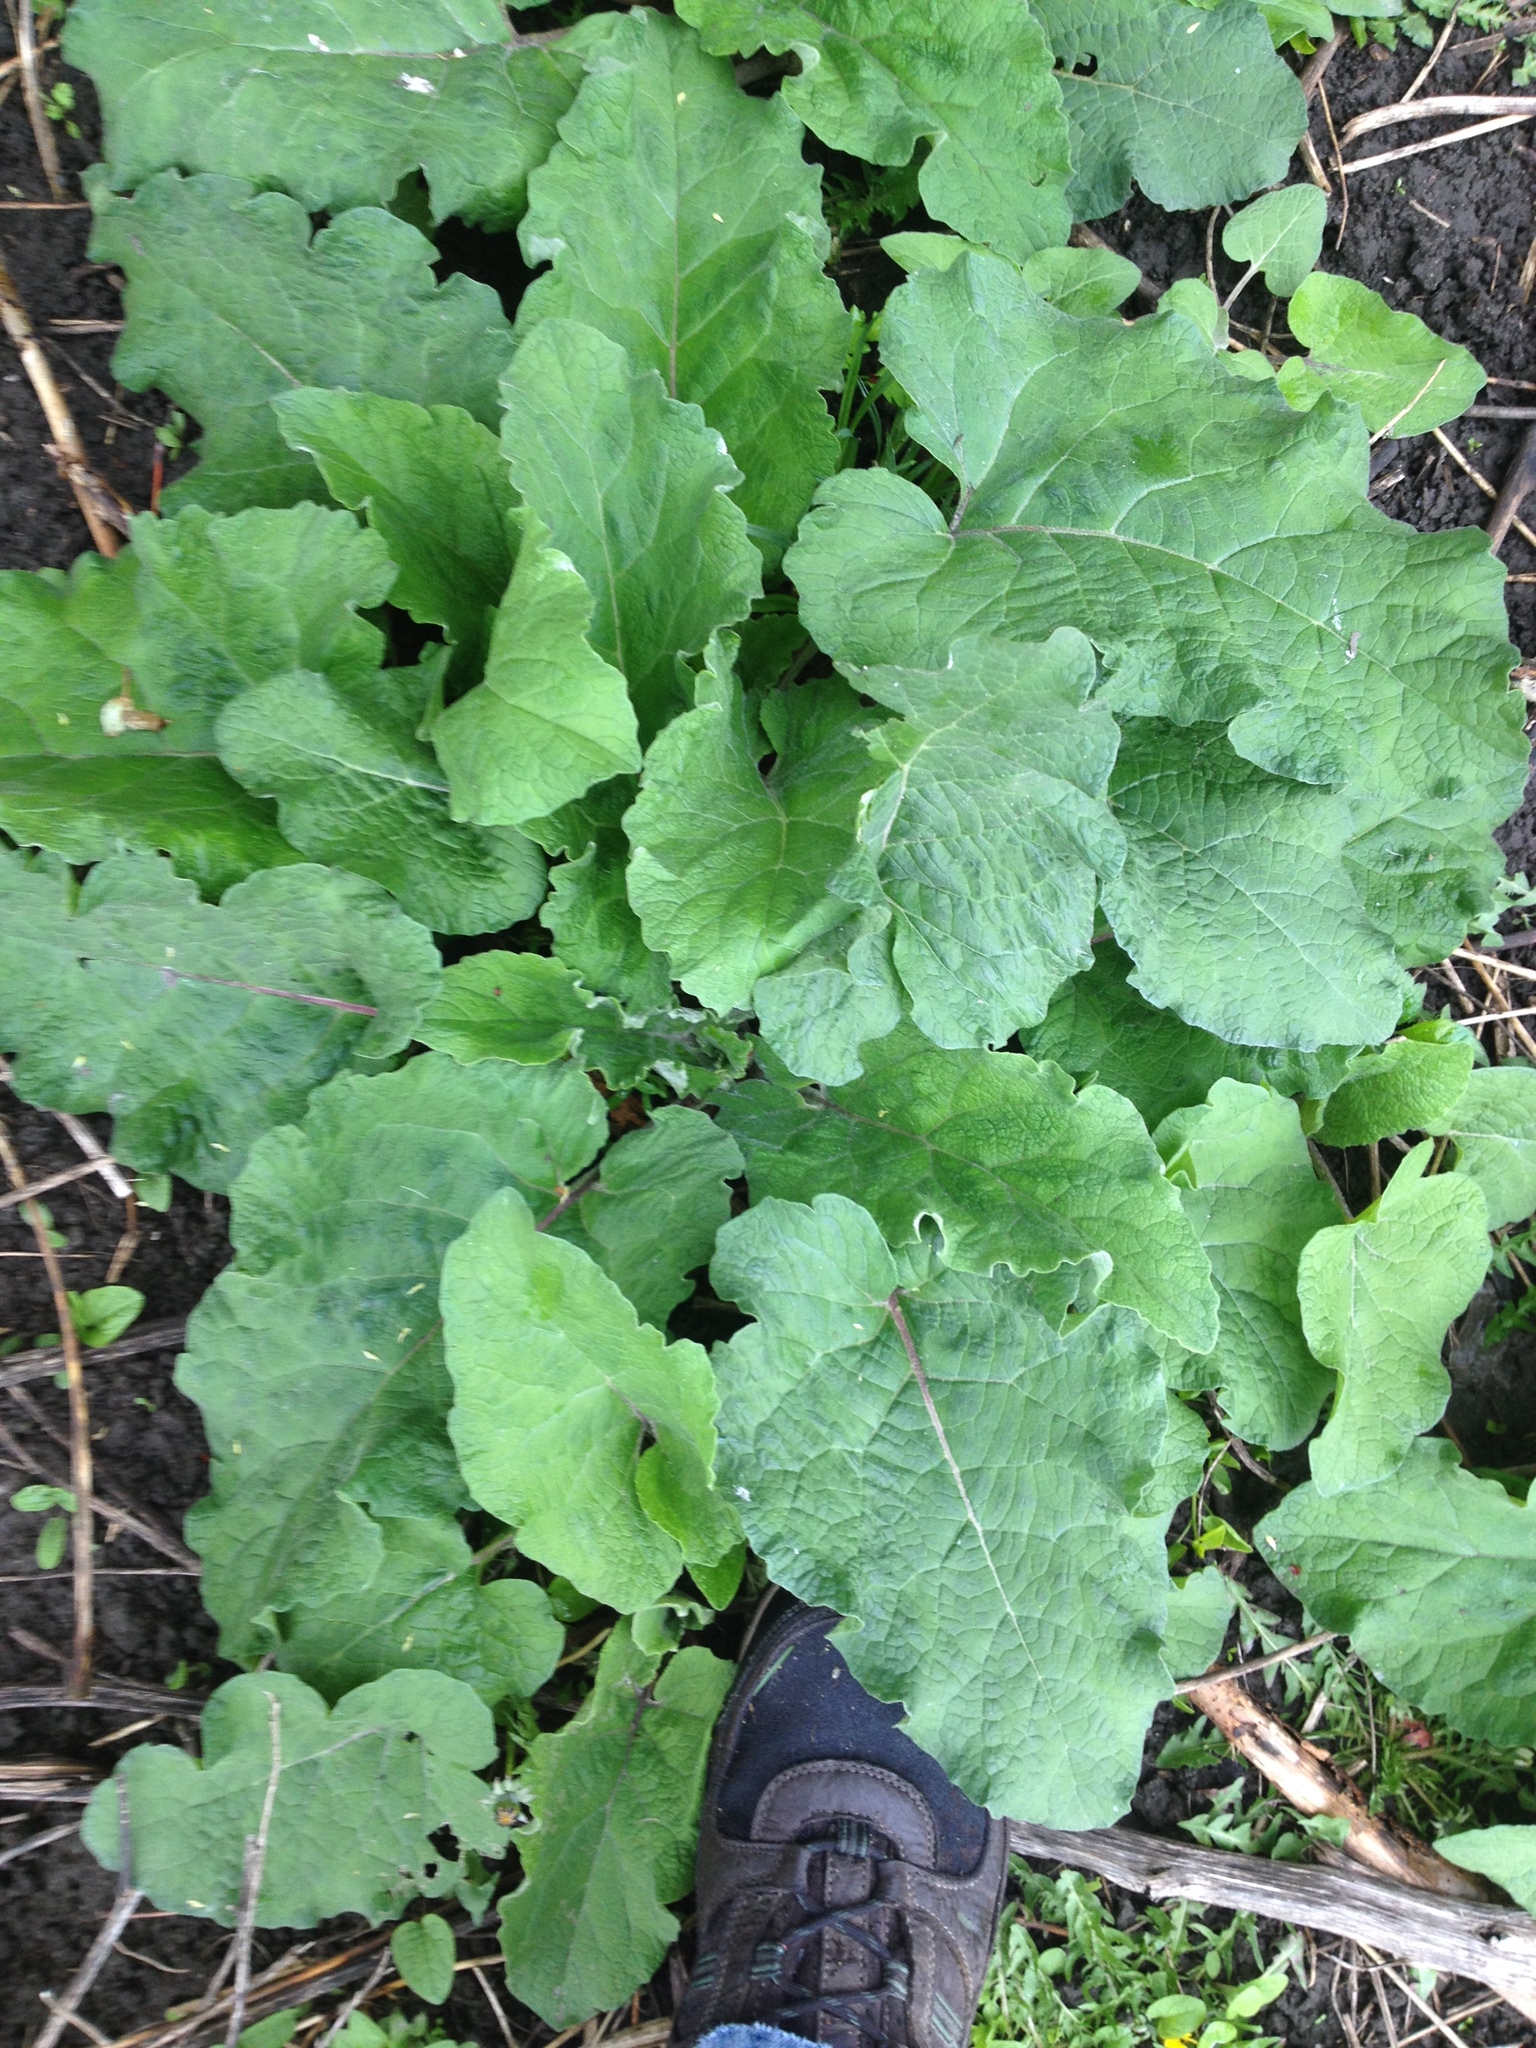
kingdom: Plantae
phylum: Tracheophyta
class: Magnoliopsida
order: Asterales
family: Asteraceae
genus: Arctium
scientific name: Arctium
